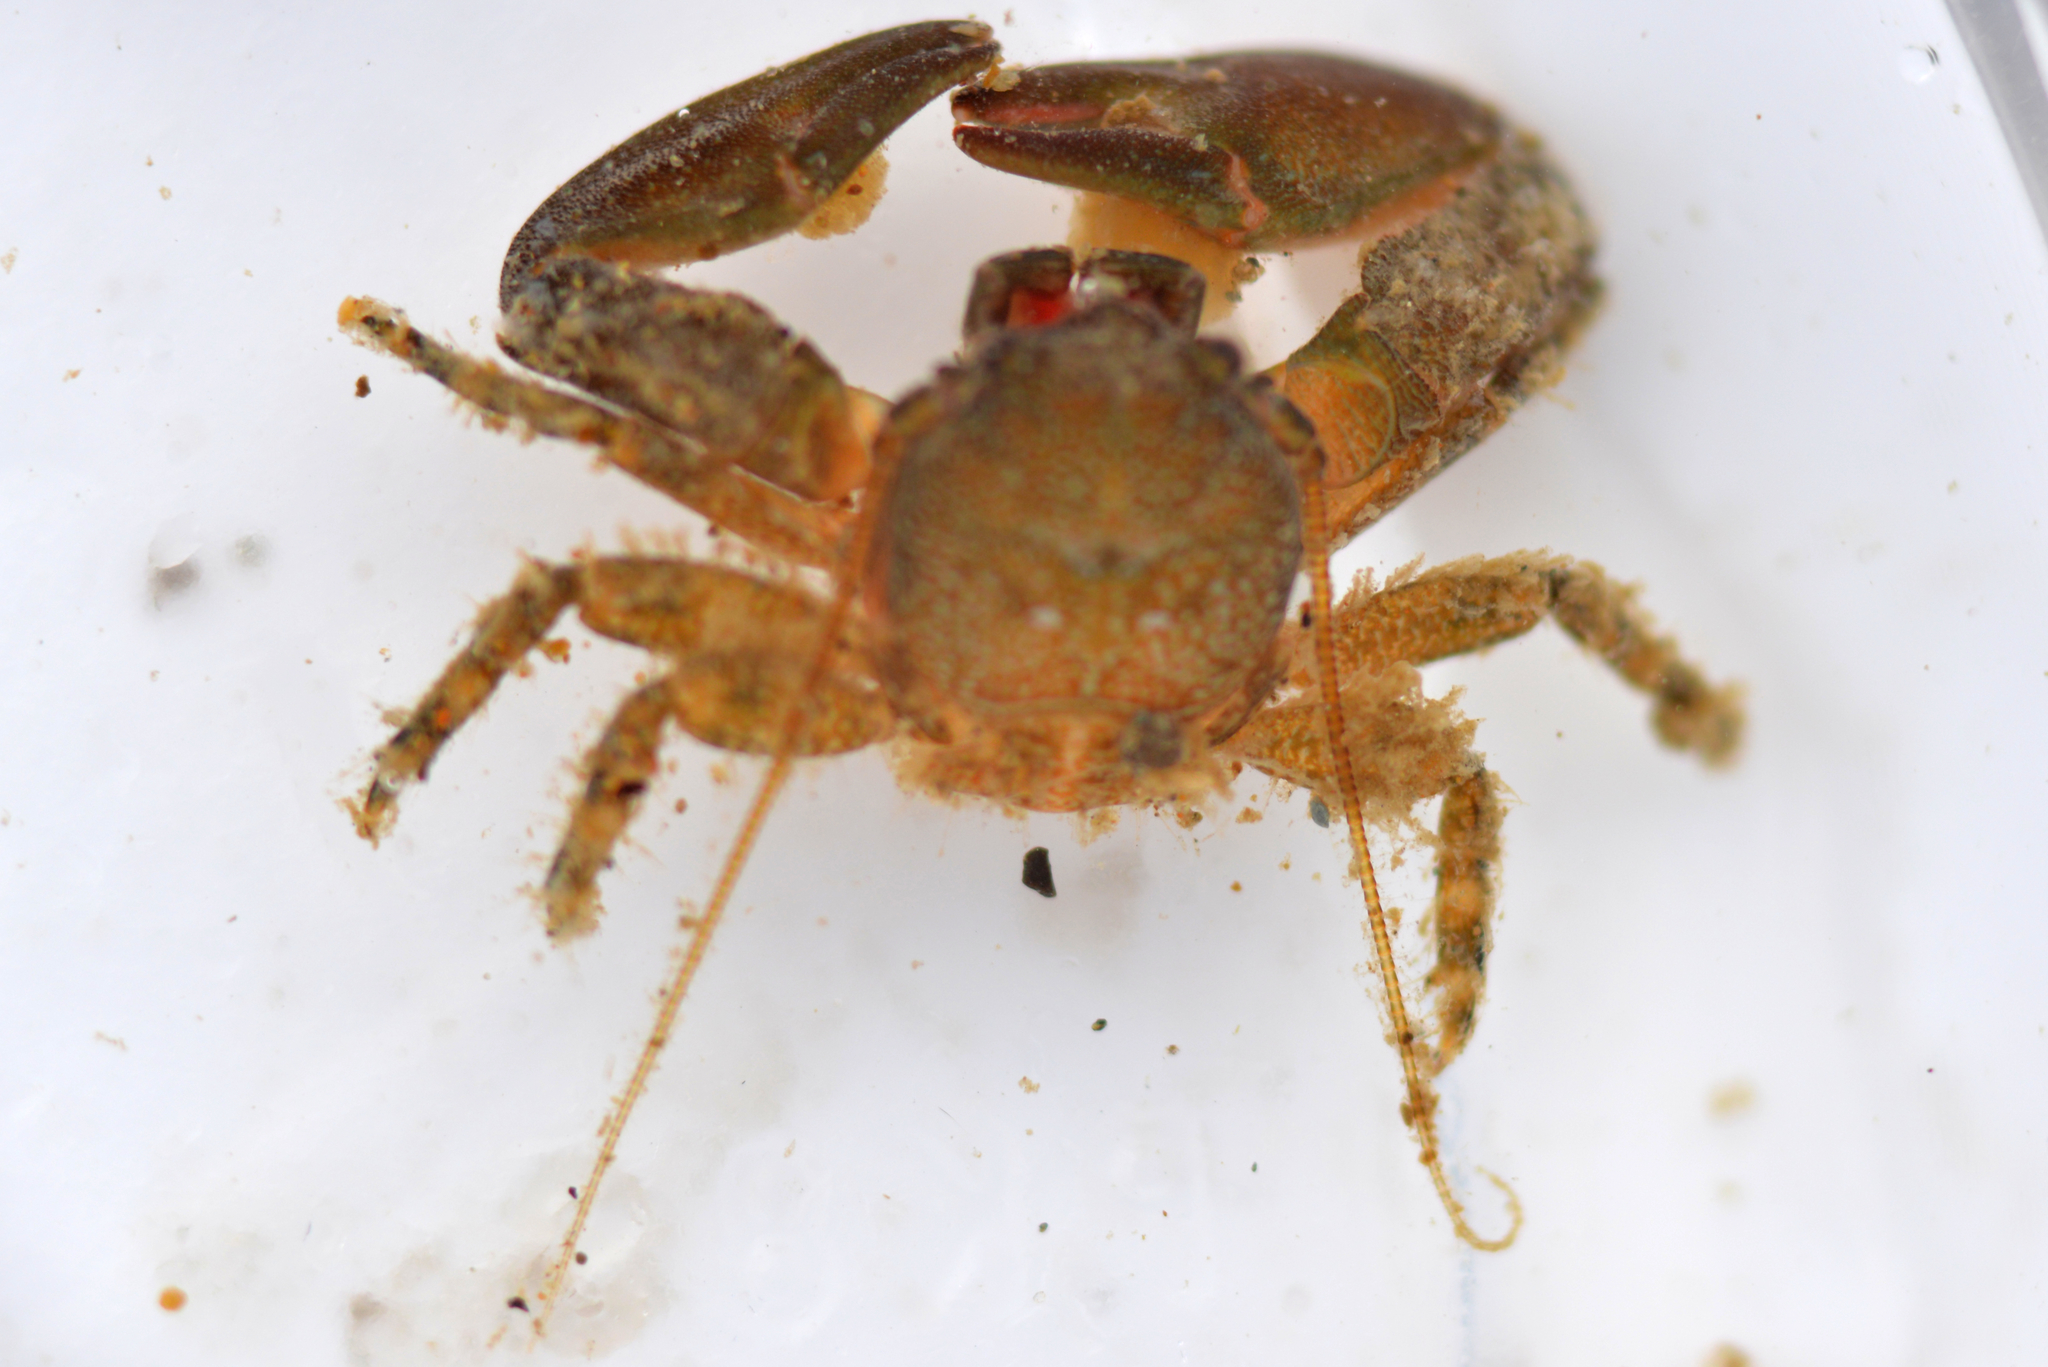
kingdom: Animalia
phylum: Arthropoda
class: Malacostraca
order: Decapoda
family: Porcellanidae
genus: Petrolisthes
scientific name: Petrolisthes cabrilloi
